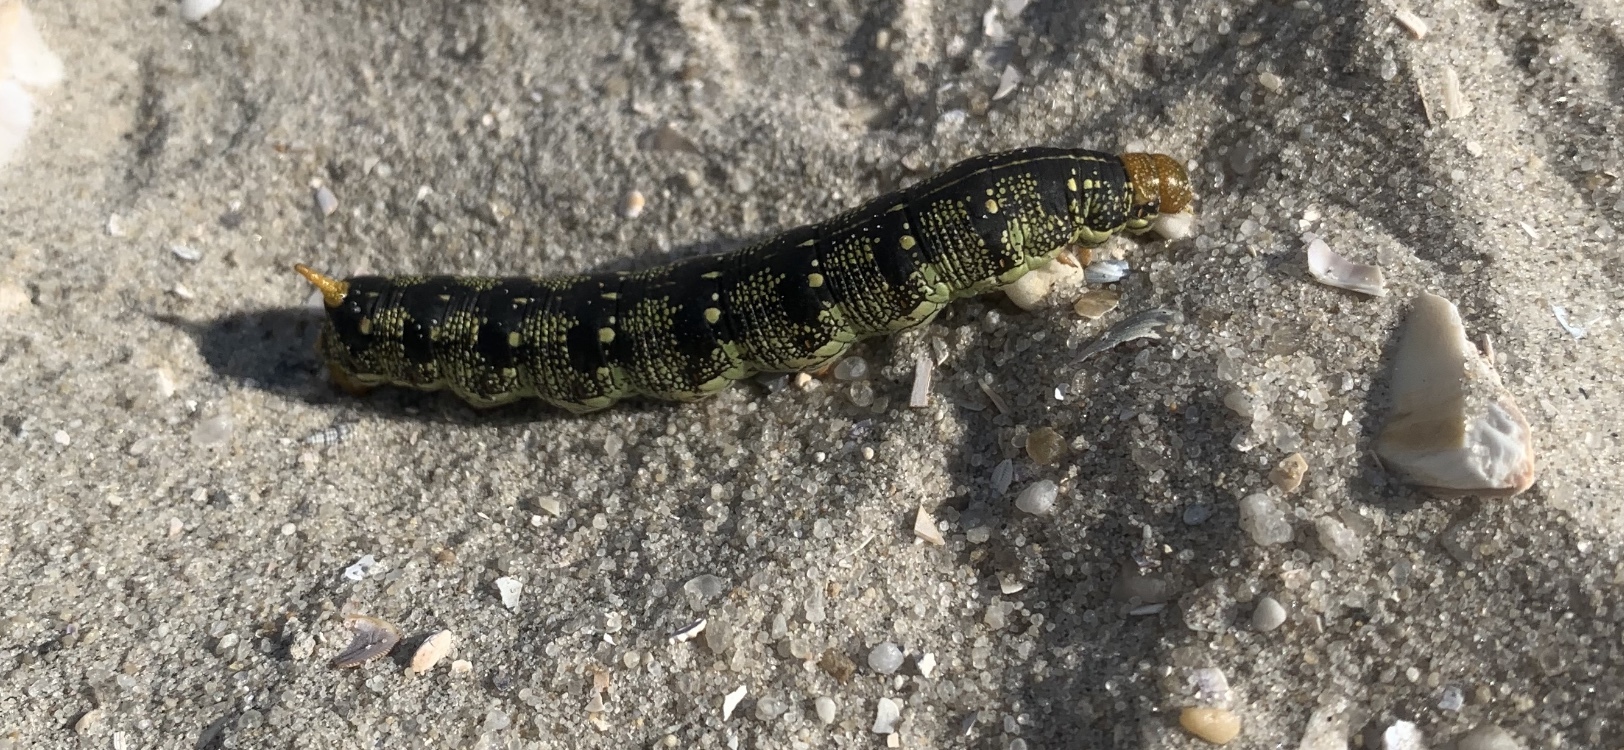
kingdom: Animalia
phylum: Arthropoda
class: Insecta
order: Lepidoptera
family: Sphingidae
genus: Hyles
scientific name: Hyles lineata
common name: White-lined sphinx
